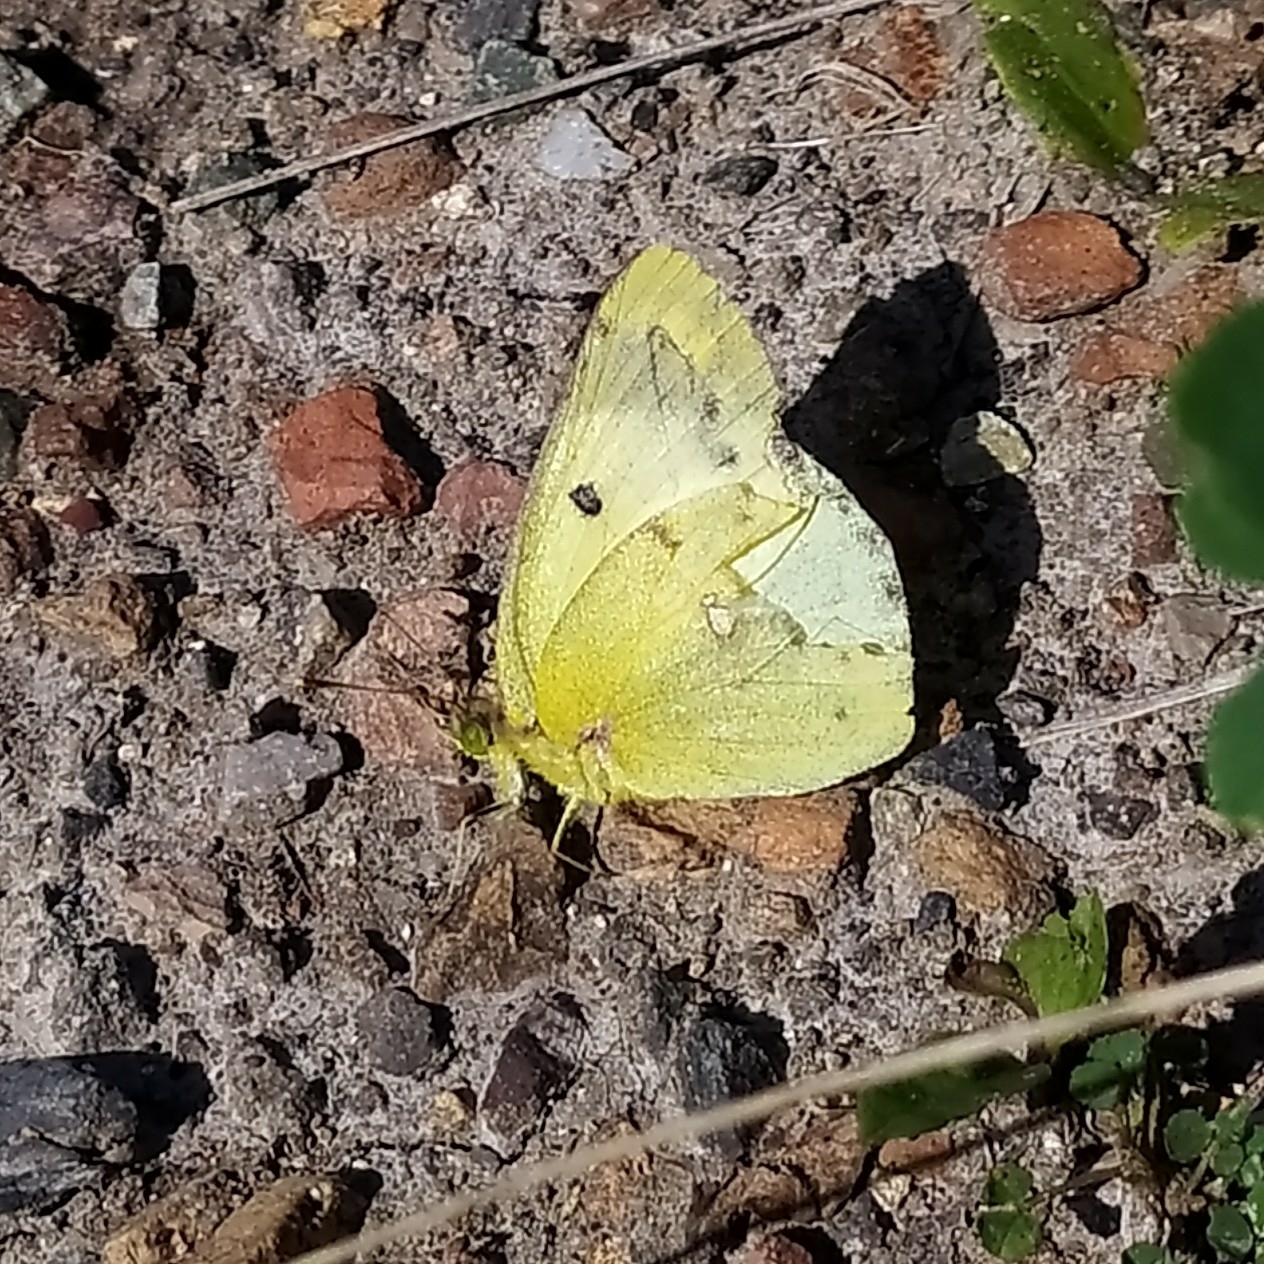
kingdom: Animalia
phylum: Arthropoda
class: Insecta
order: Lepidoptera
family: Pieridae
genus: Colias
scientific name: Colias hyale
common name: Pale clouded yellow
